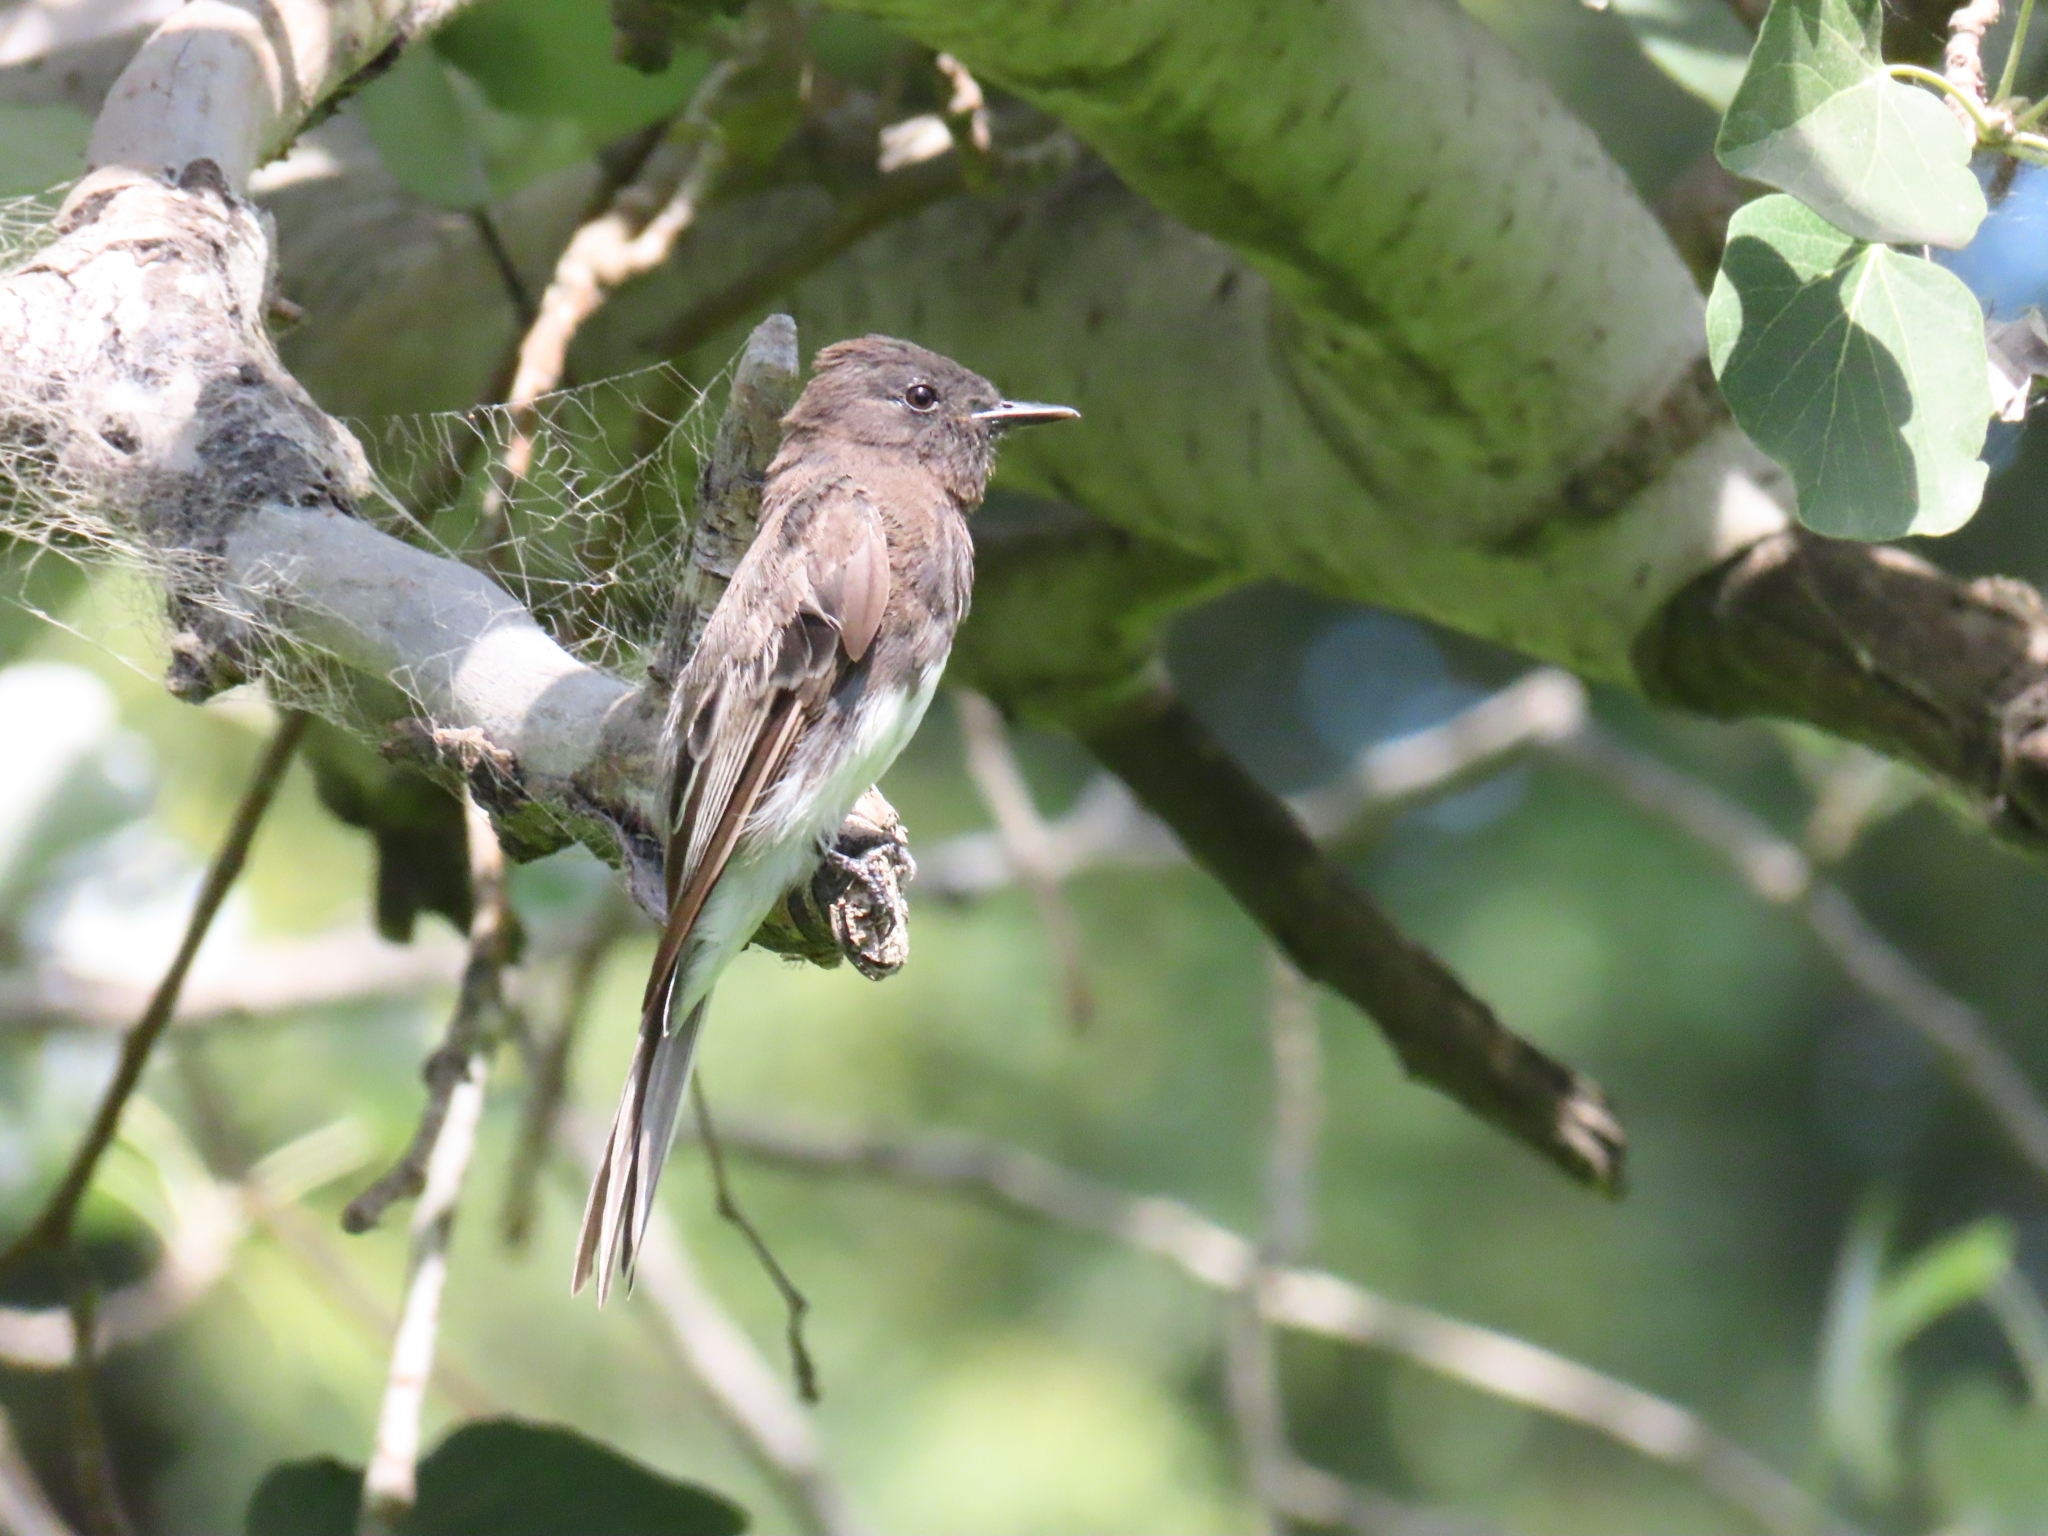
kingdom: Animalia
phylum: Chordata
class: Aves
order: Passeriformes
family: Tyrannidae
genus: Sayornis
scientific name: Sayornis nigricans
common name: Black phoebe
